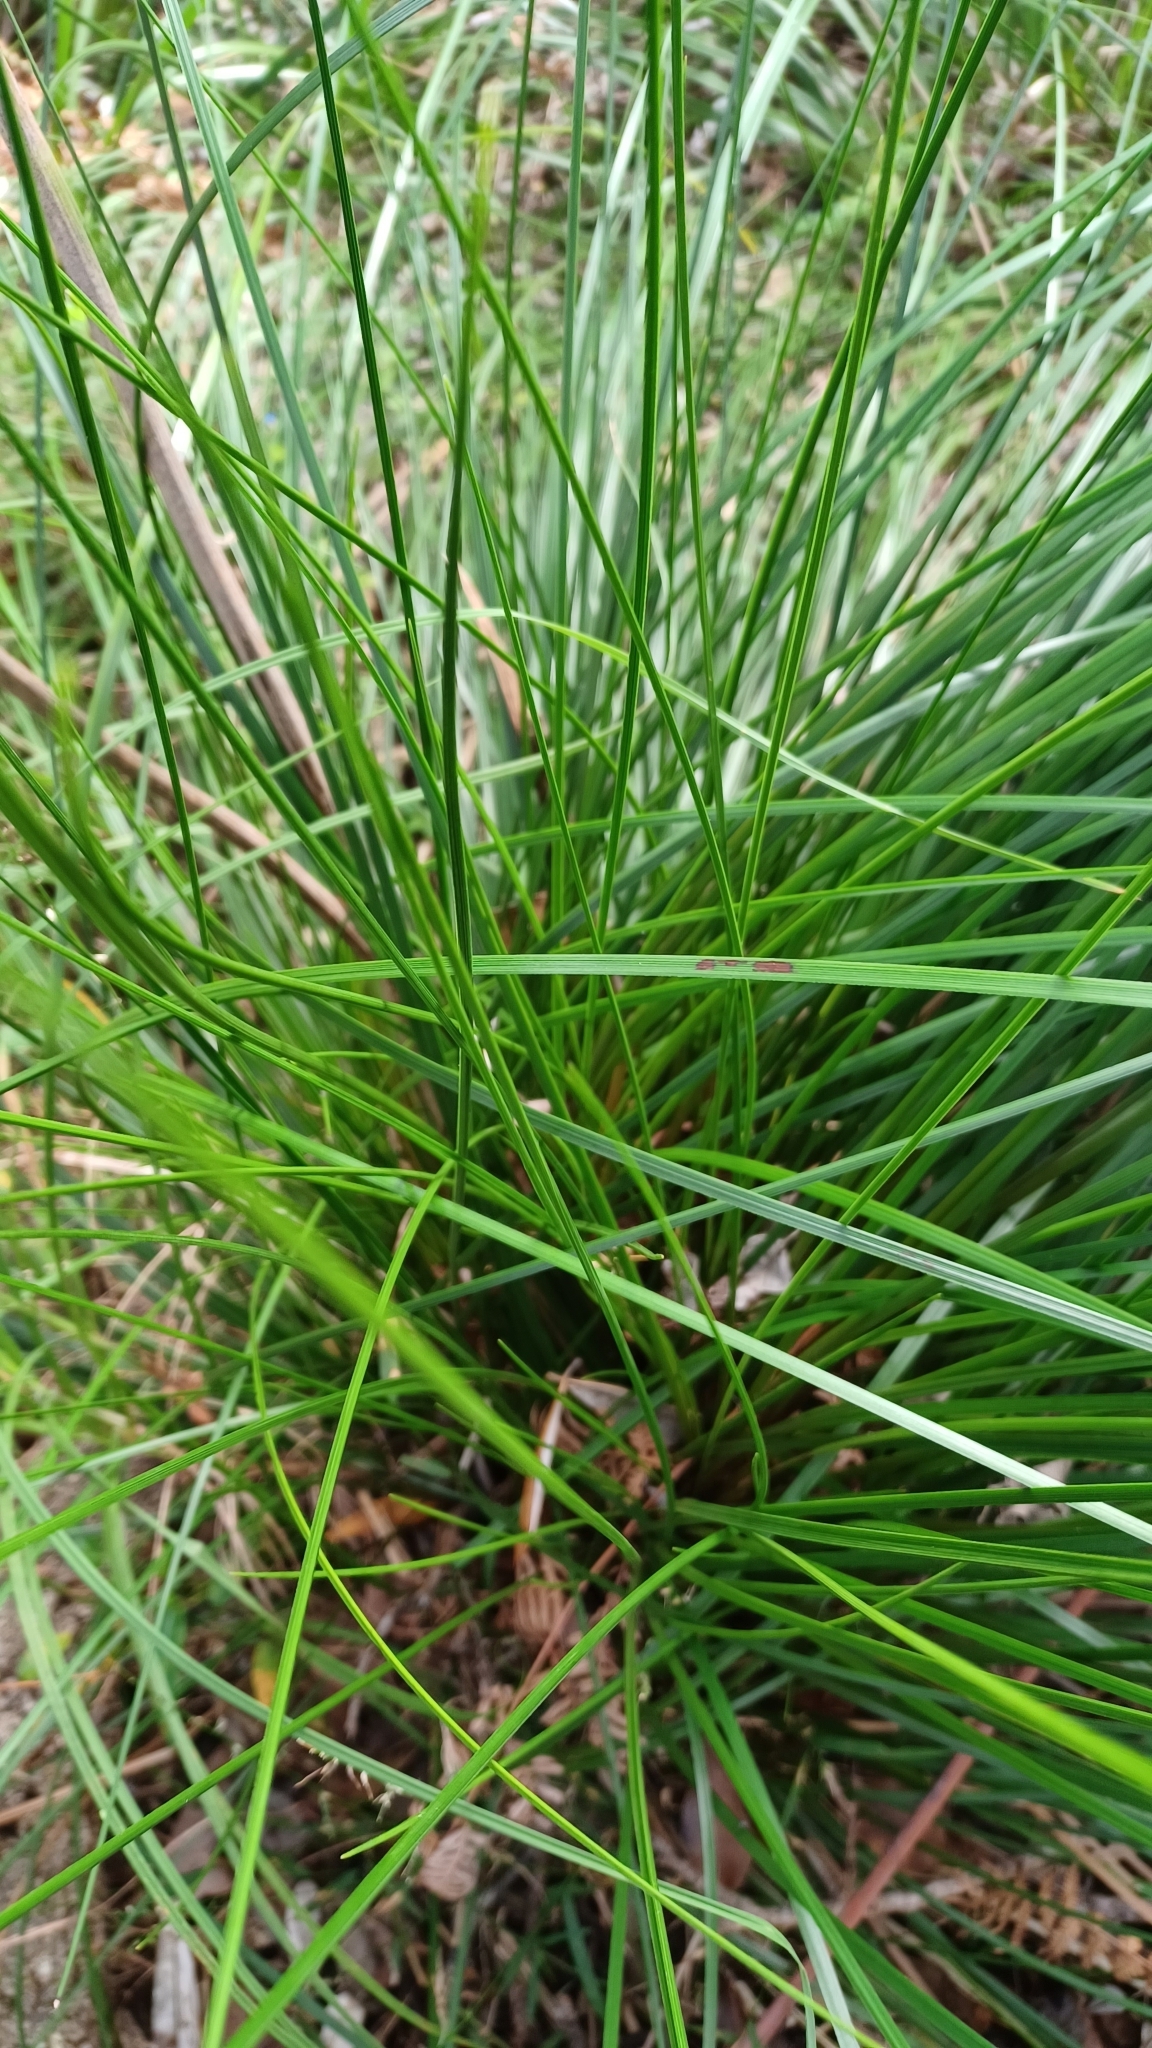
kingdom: Plantae
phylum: Tracheophyta
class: Liliopsida
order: Asparagales
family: Asphodelaceae
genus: Xanthorrhoea
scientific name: Xanthorrhoea macronema
